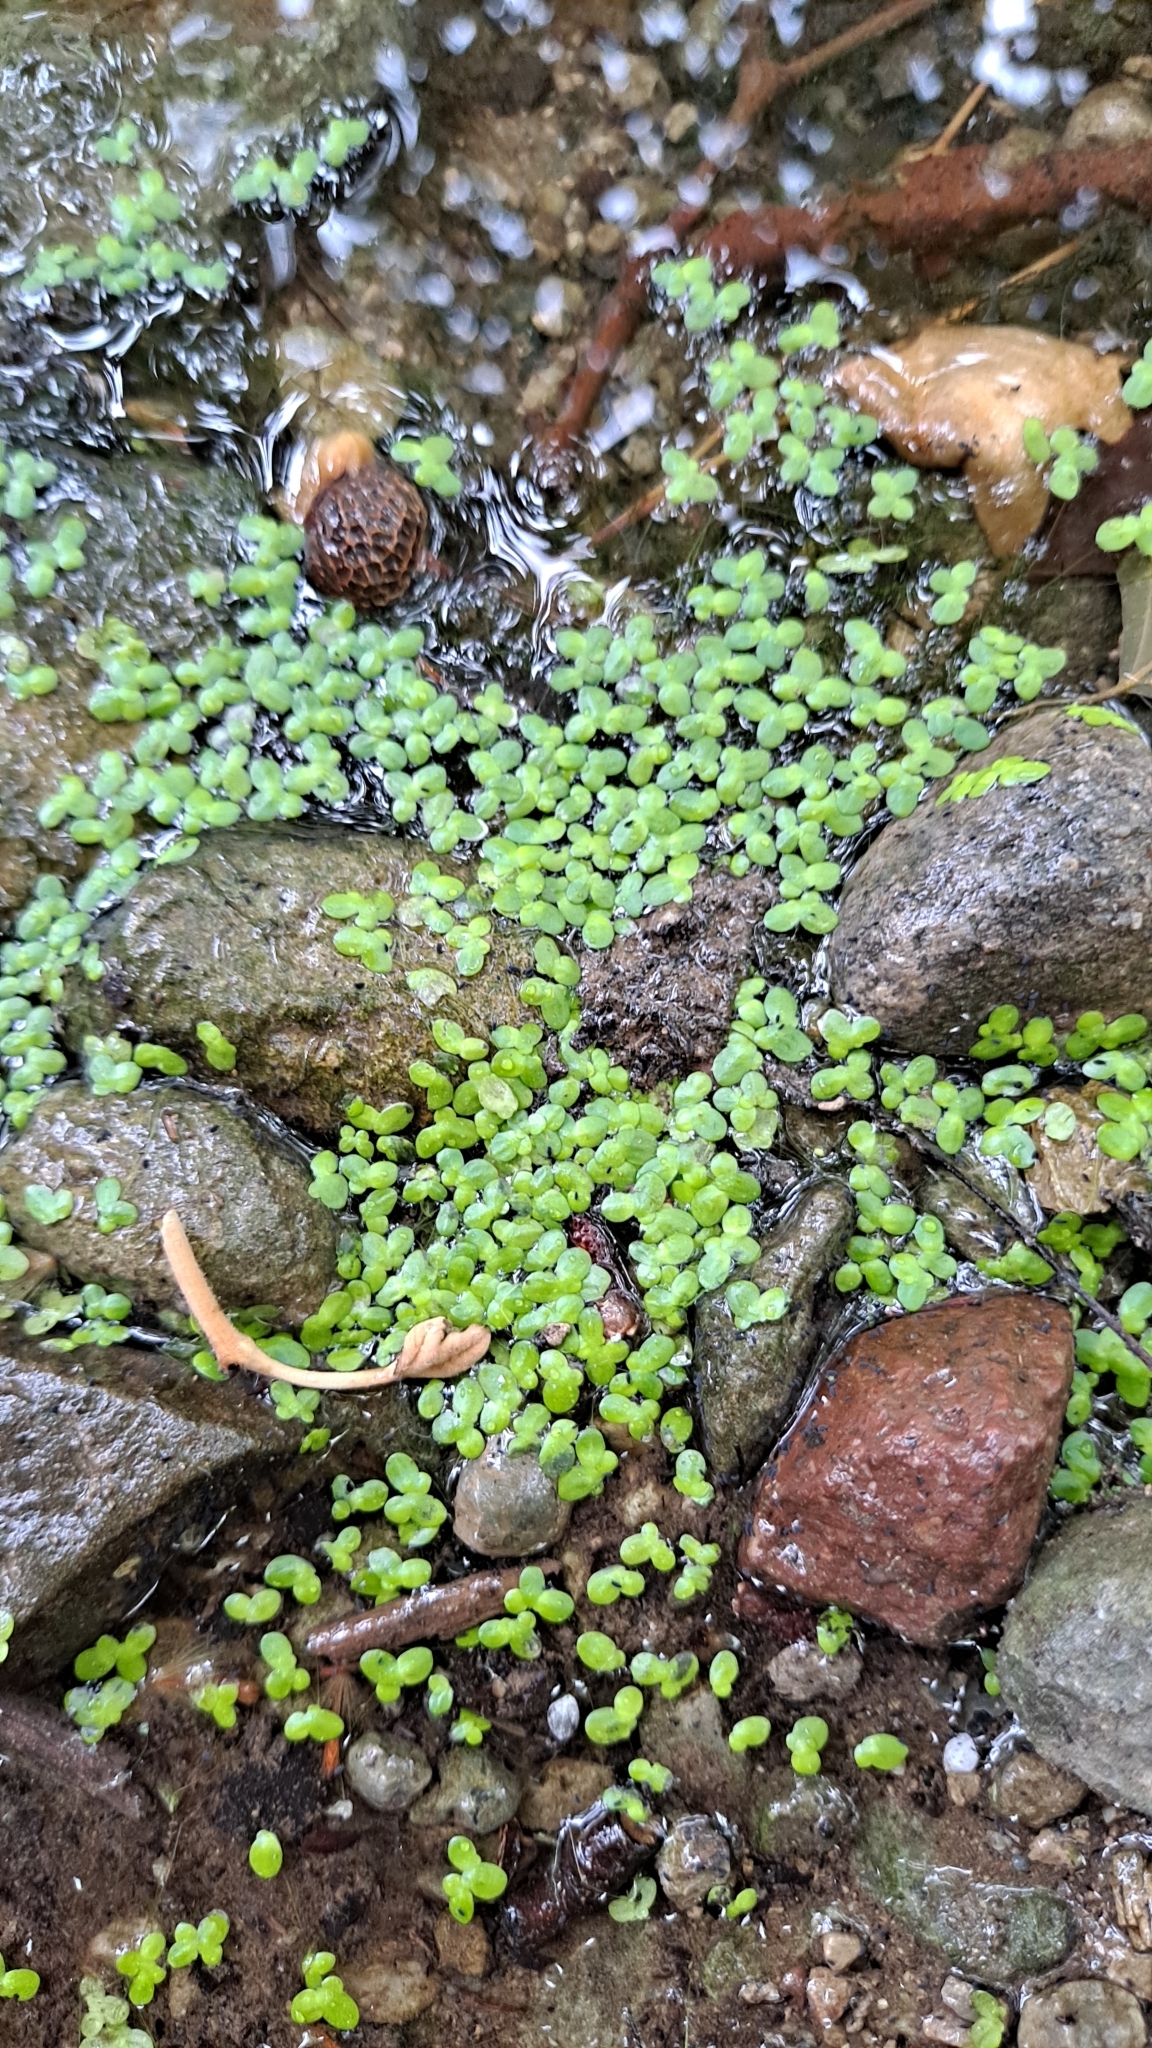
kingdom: Plantae
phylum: Tracheophyta
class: Liliopsida
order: Alismatales
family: Araceae
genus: Lemna
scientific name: Lemna minor
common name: Common duckweed
